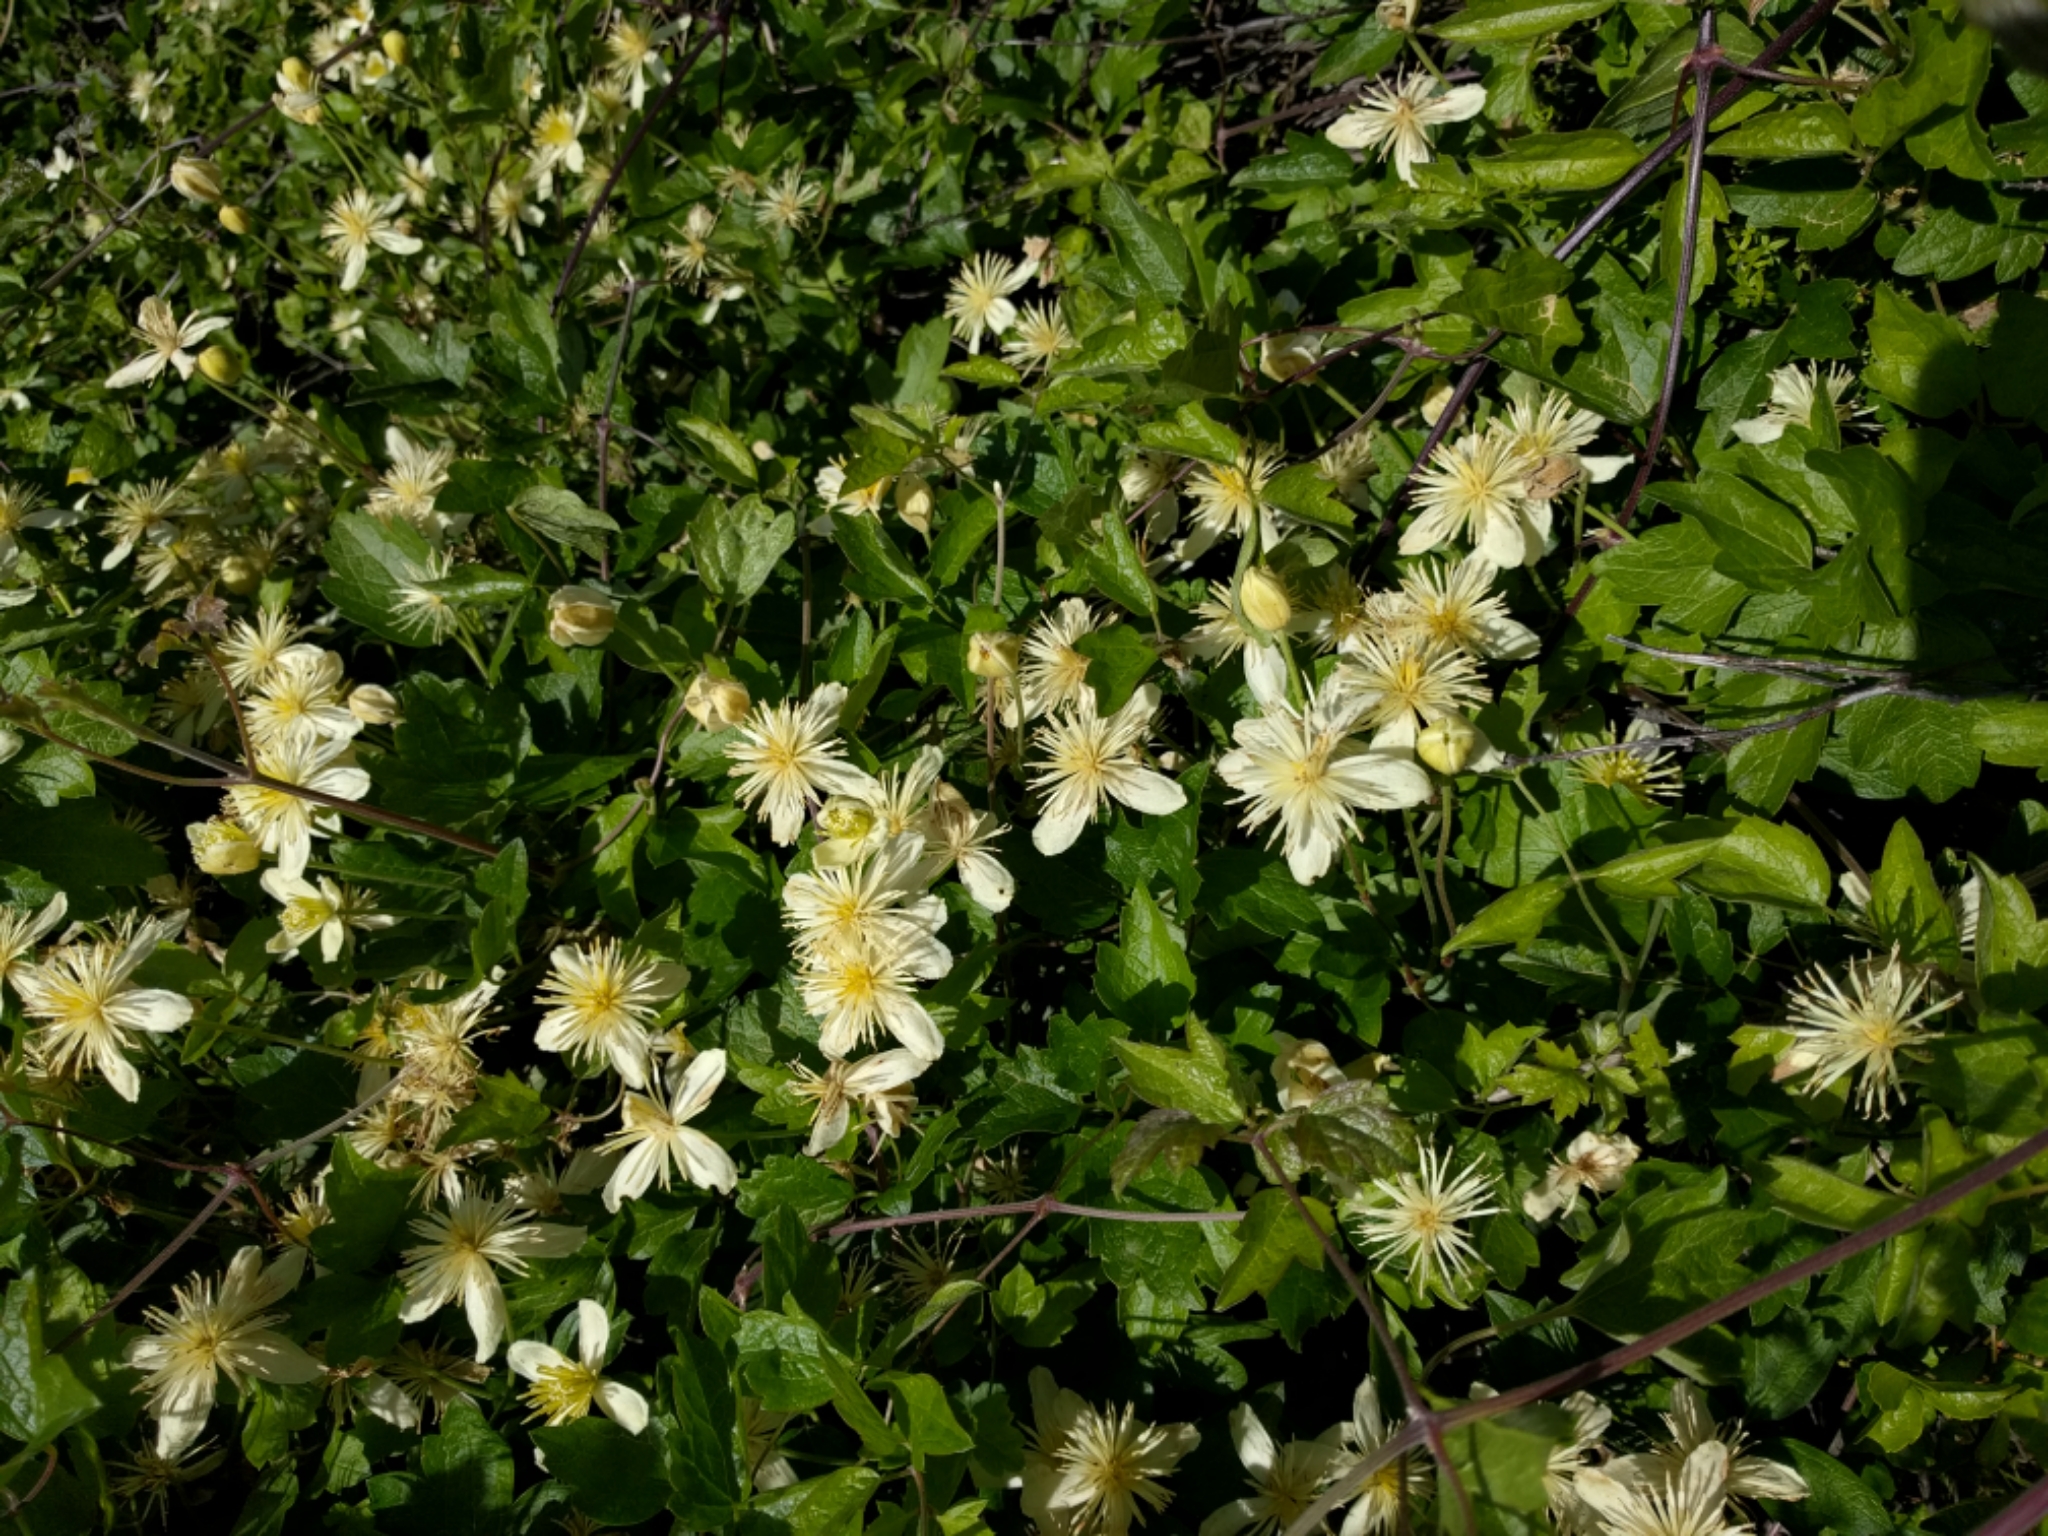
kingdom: Plantae
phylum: Tracheophyta
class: Magnoliopsida
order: Ranunculales
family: Ranunculaceae
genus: Clematis
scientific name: Clematis lasiantha
